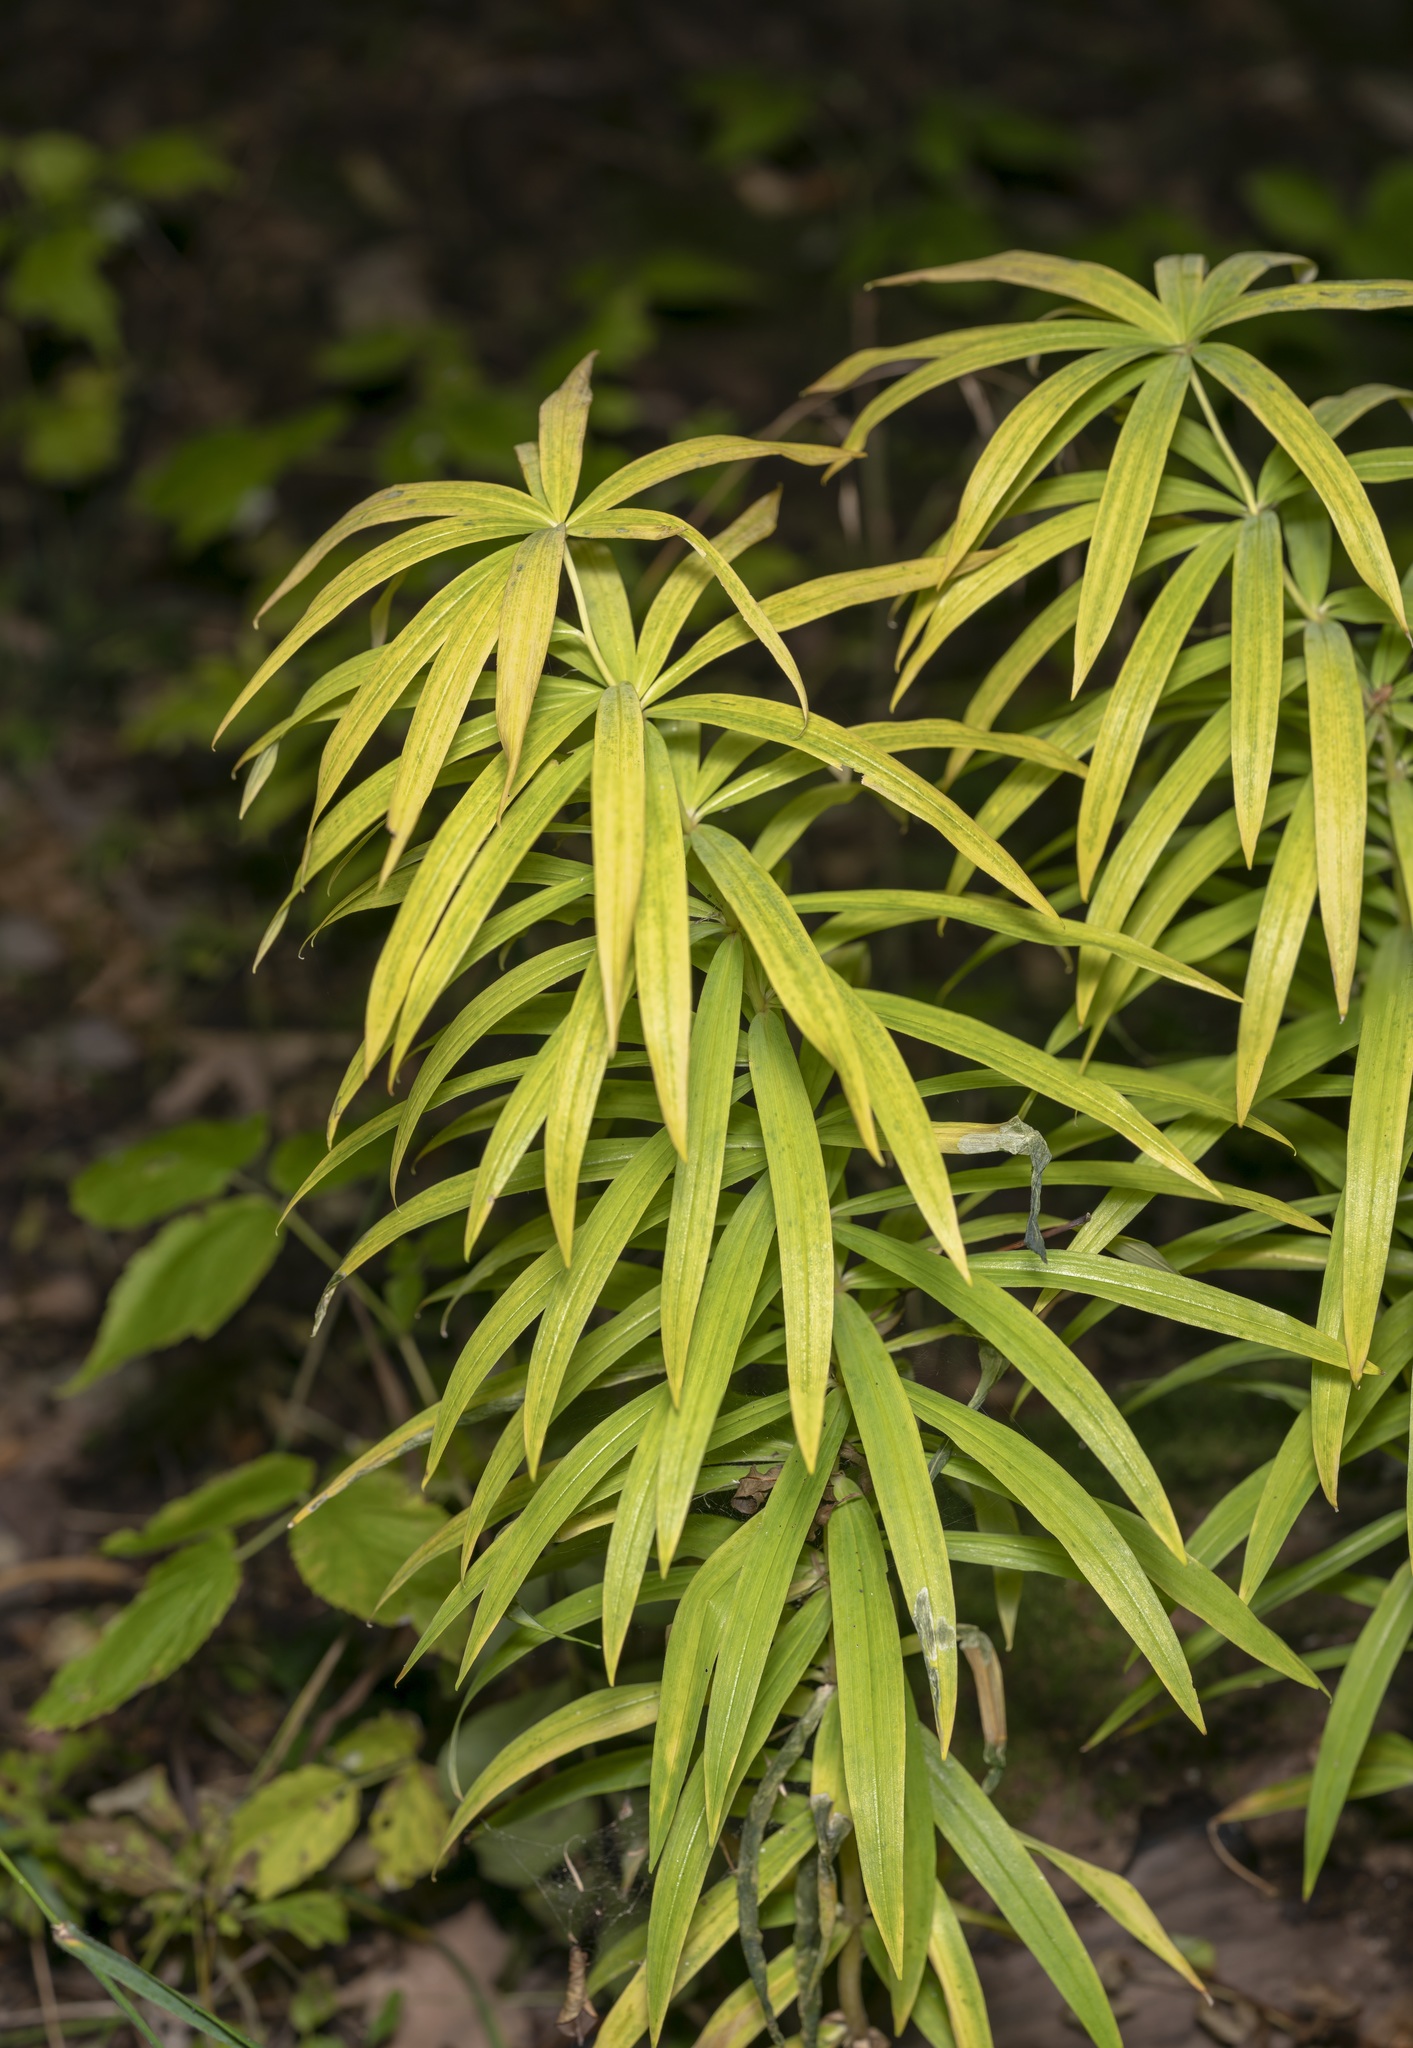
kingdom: Plantae
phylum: Tracheophyta
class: Liliopsida
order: Asparagales
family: Asparagaceae
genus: Polygonatum
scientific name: Polygonatum verticillatum
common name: Whorled solomon's-seal
